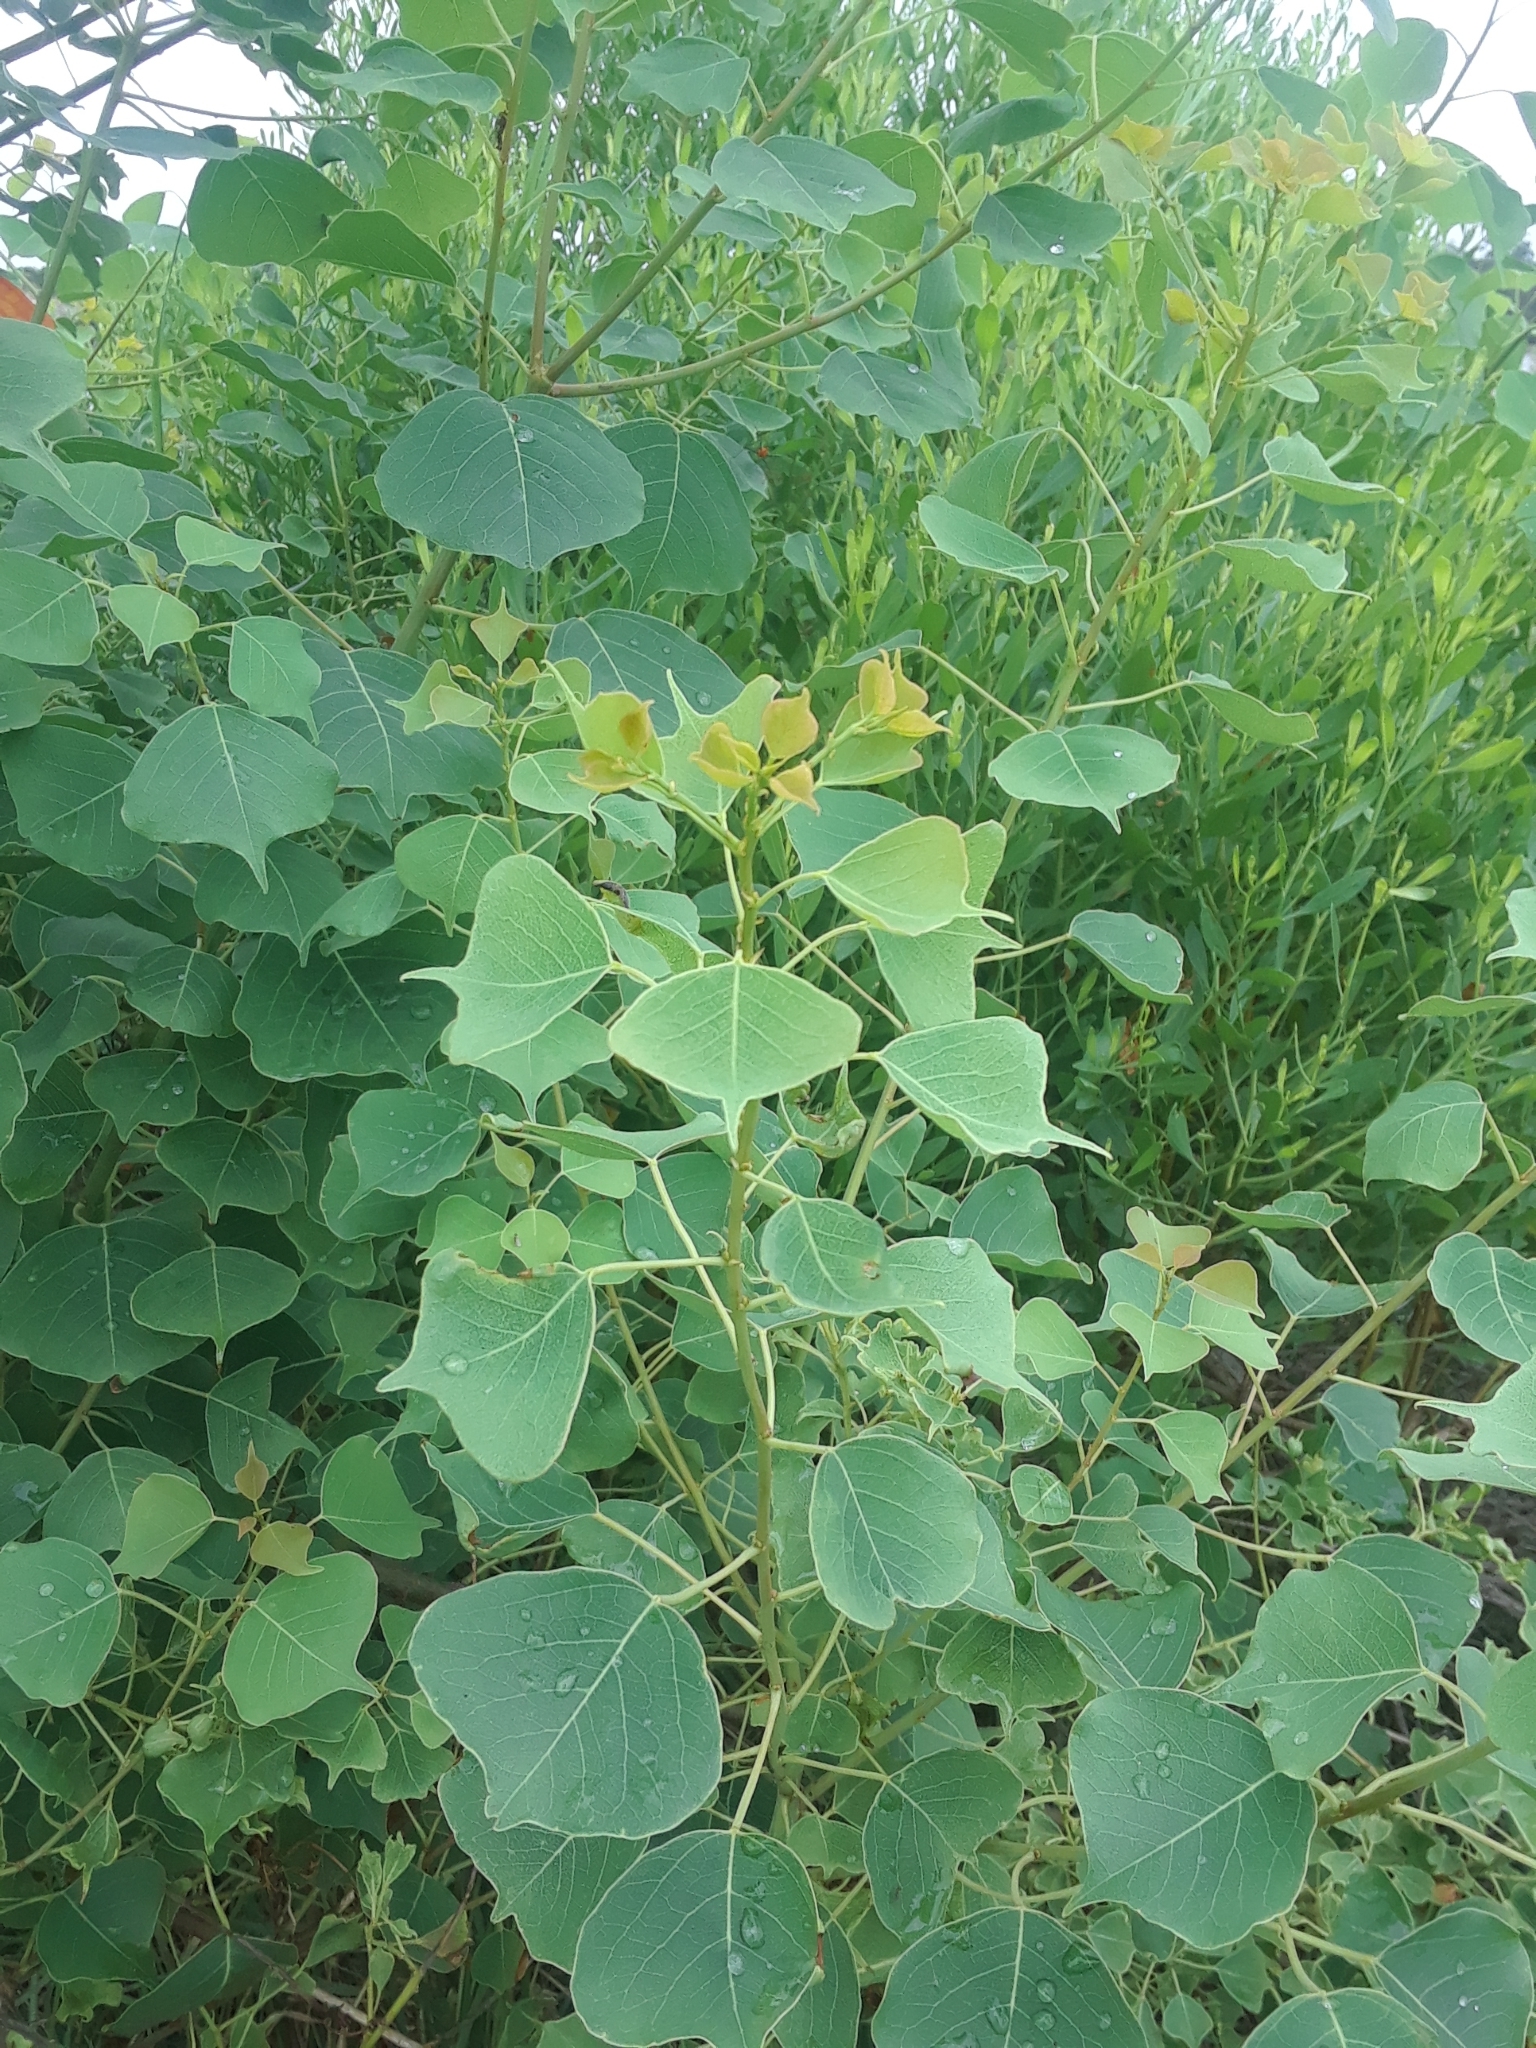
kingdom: Plantae
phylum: Tracheophyta
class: Magnoliopsida
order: Malpighiales
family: Euphorbiaceae
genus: Triadica
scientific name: Triadica sebifera
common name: Chinese tallow
